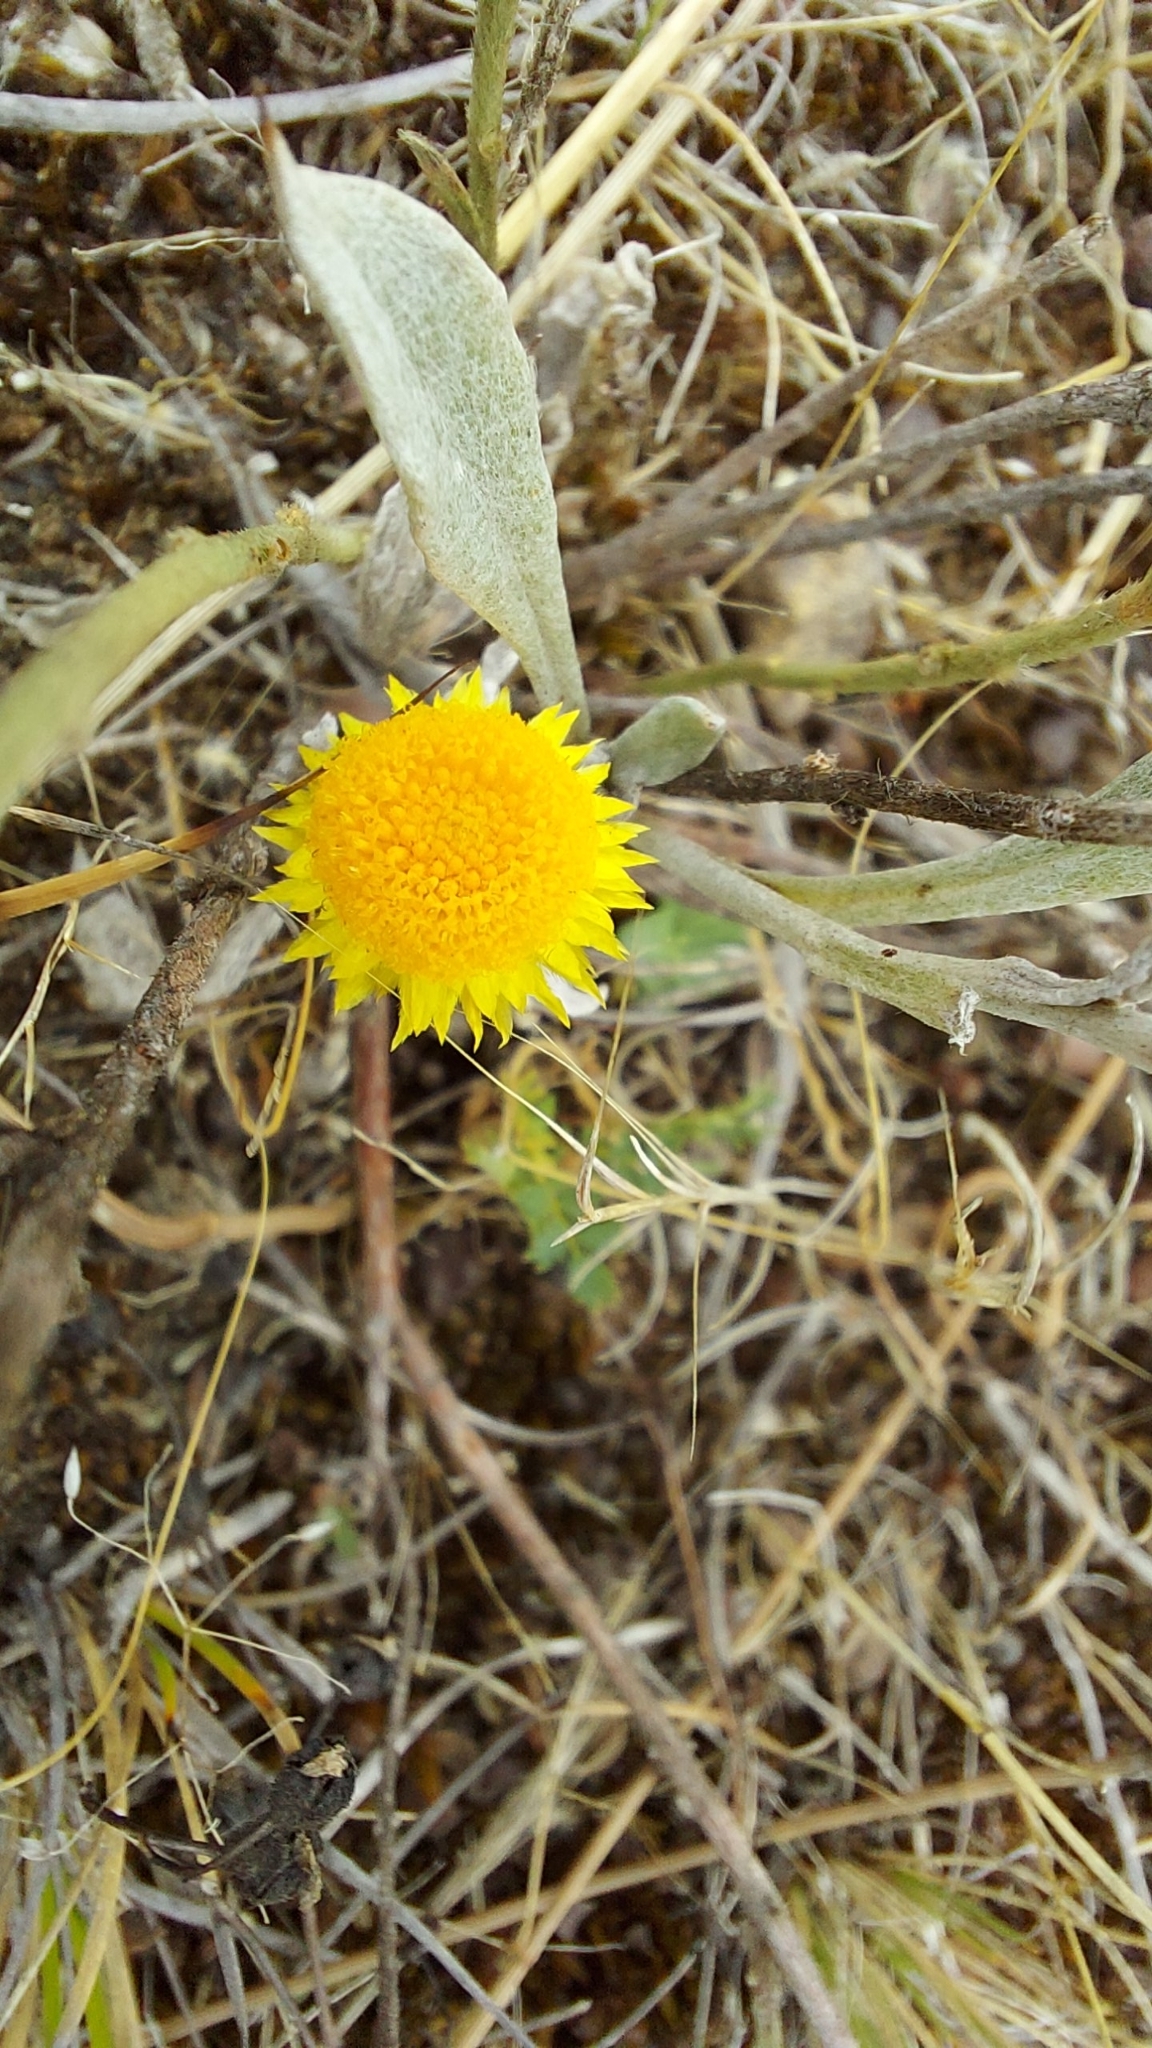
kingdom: Plantae
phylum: Tracheophyta
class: Magnoliopsida
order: Asterales
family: Asteraceae
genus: Chrysocephalum
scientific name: Chrysocephalum apiculatum
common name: Common everlasting
